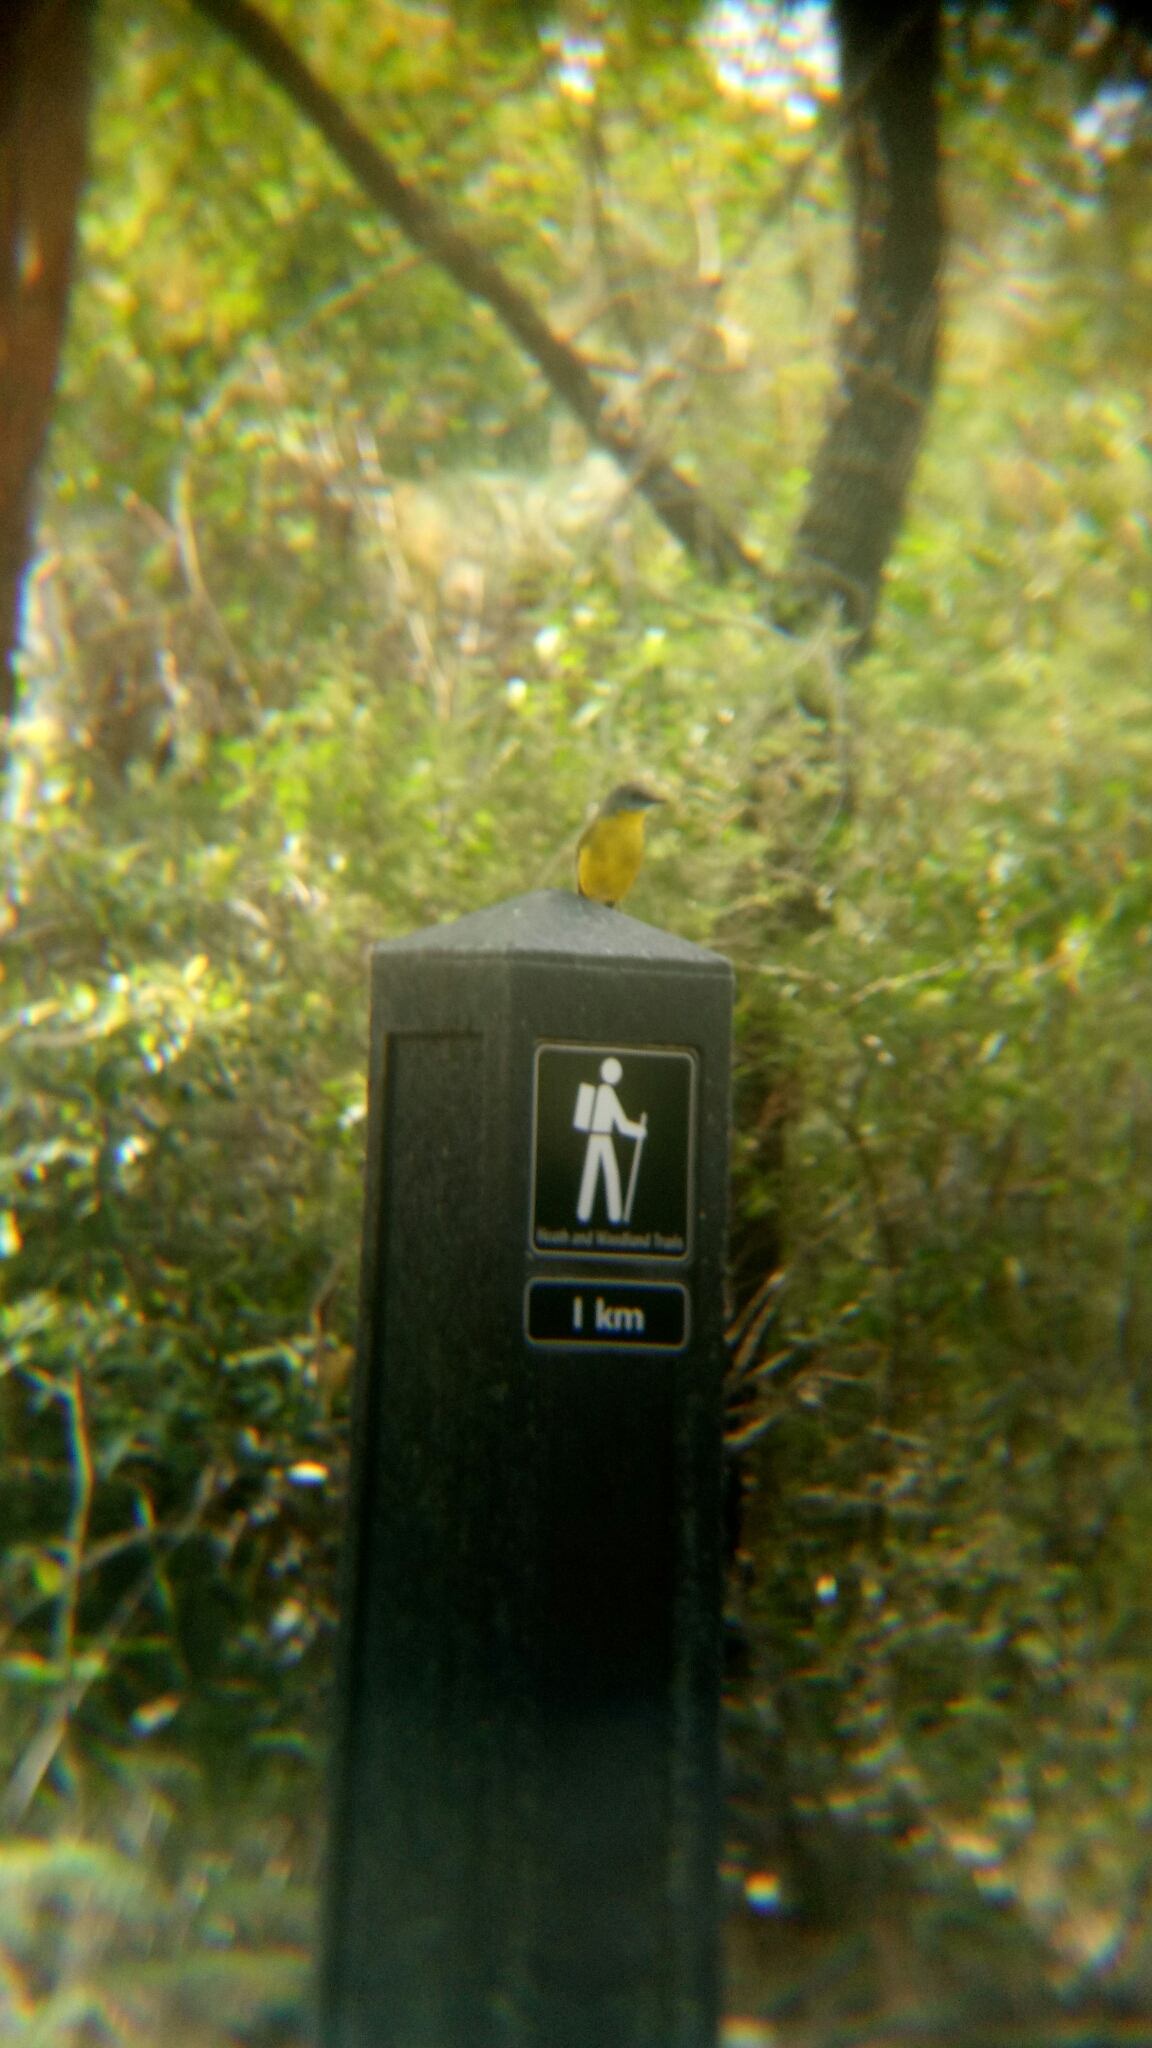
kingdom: Animalia
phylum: Chordata
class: Aves
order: Passeriformes
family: Petroicidae
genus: Eopsaltria
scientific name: Eopsaltria australis
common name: Eastern yellow robin
